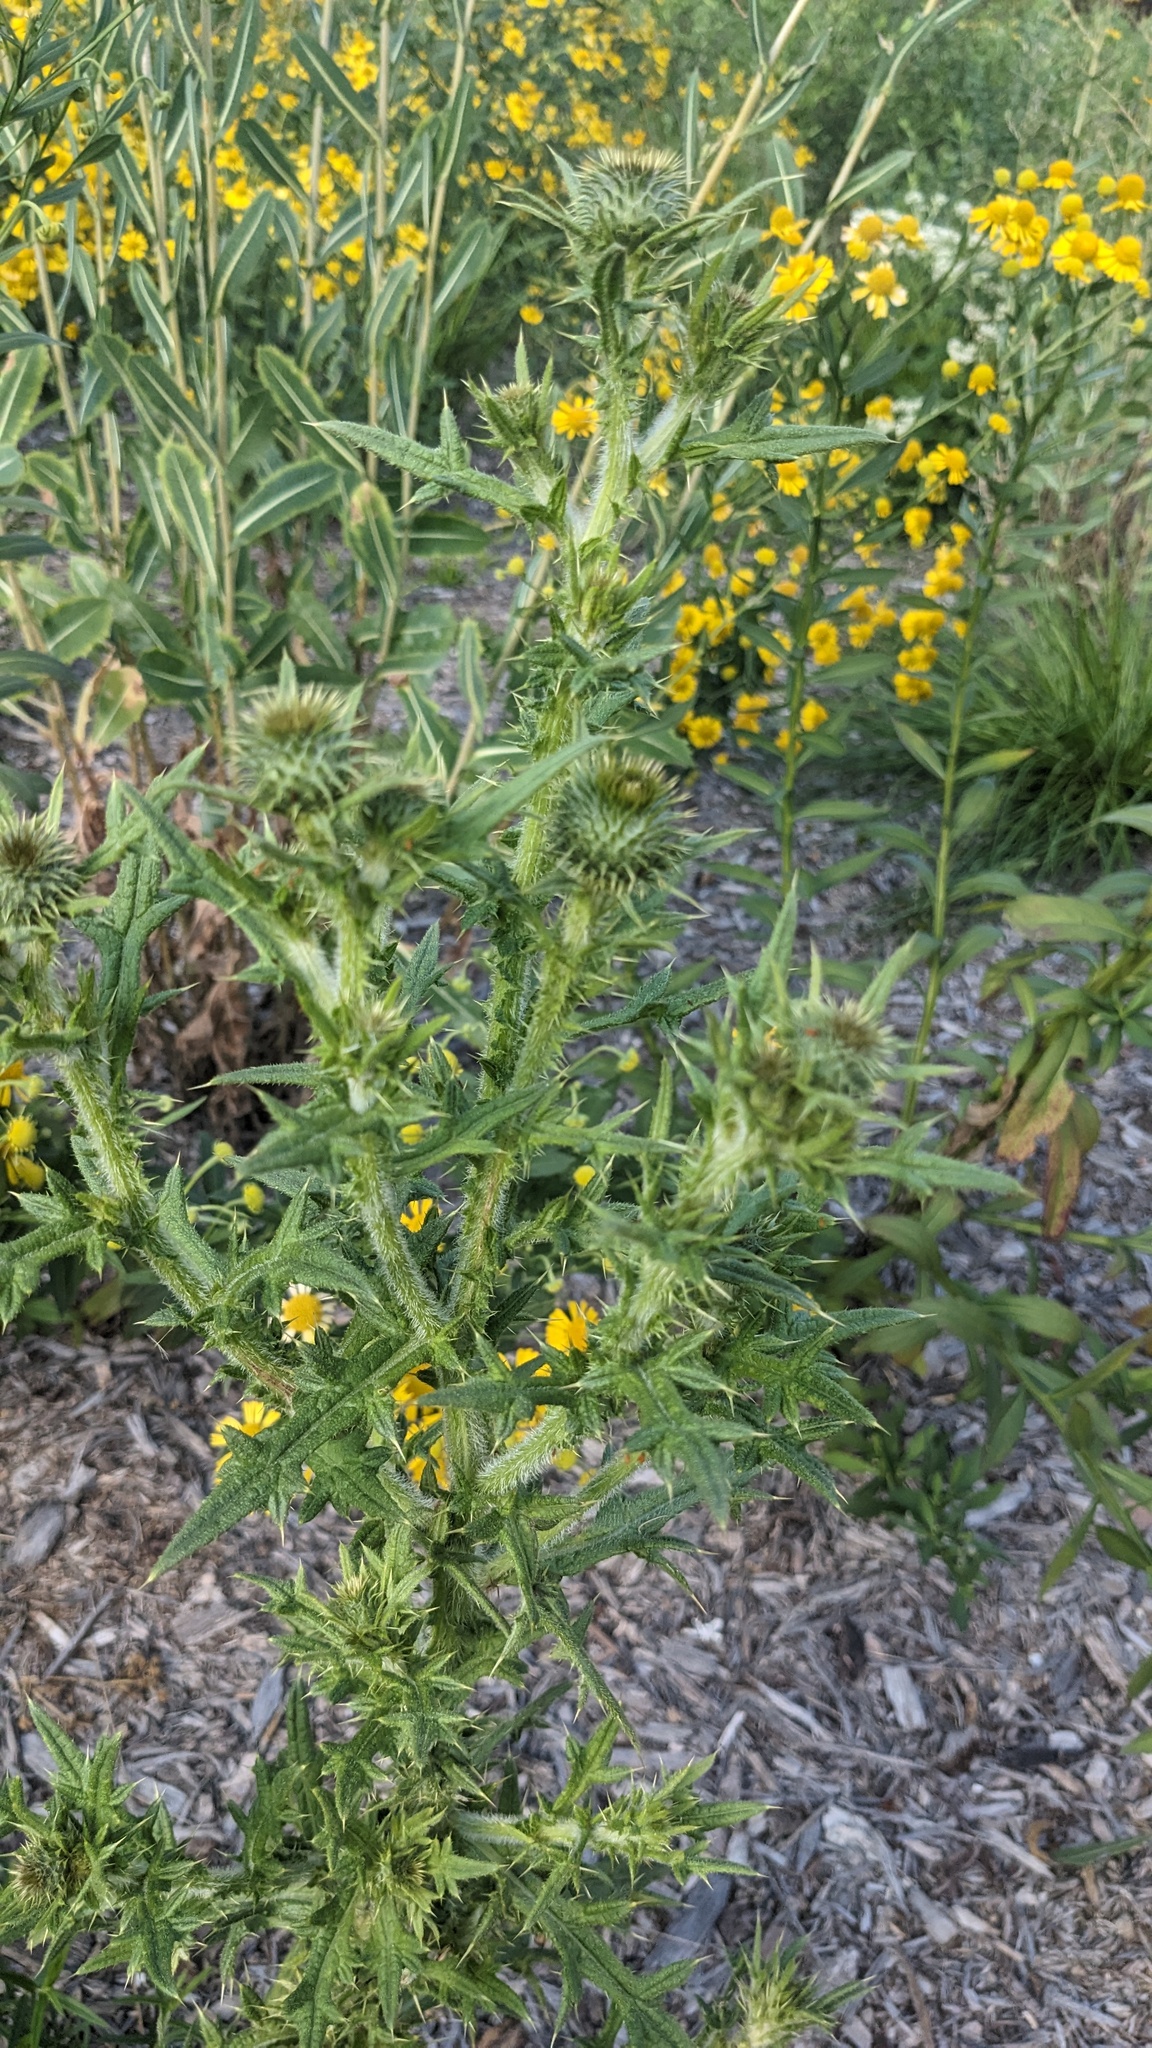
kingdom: Plantae
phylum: Tracheophyta
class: Magnoliopsida
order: Asterales
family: Asteraceae
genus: Cirsium
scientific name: Cirsium vulgare
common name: Bull thistle
